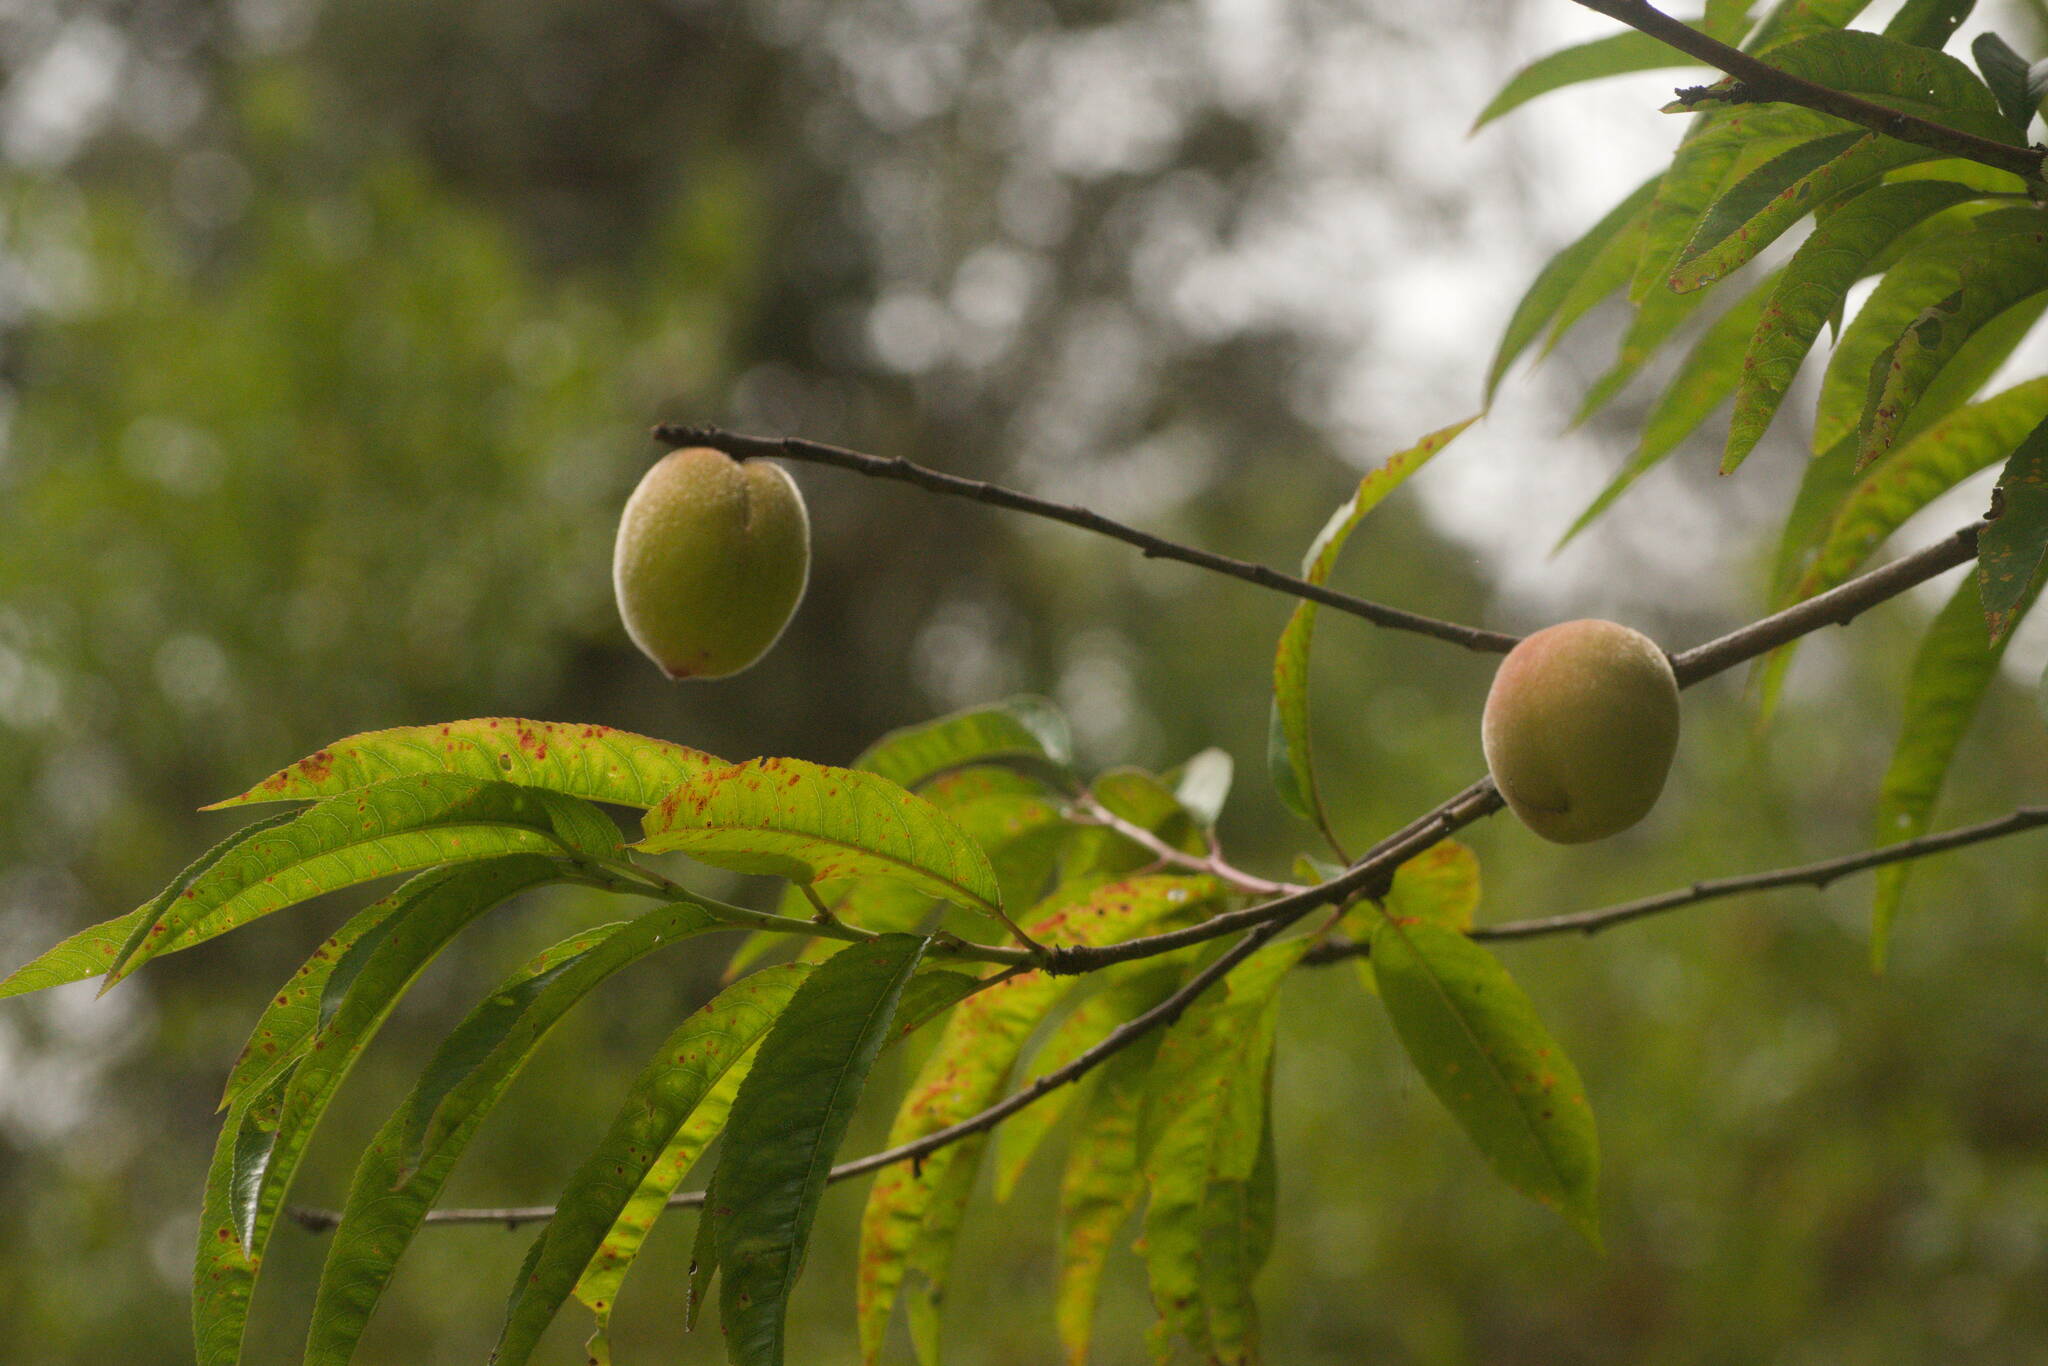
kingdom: Plantae
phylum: Tracheophyta
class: Magnoliopsida
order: Rosales
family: Rosaceae
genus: Prunus
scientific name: Prunus persica
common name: Peach
